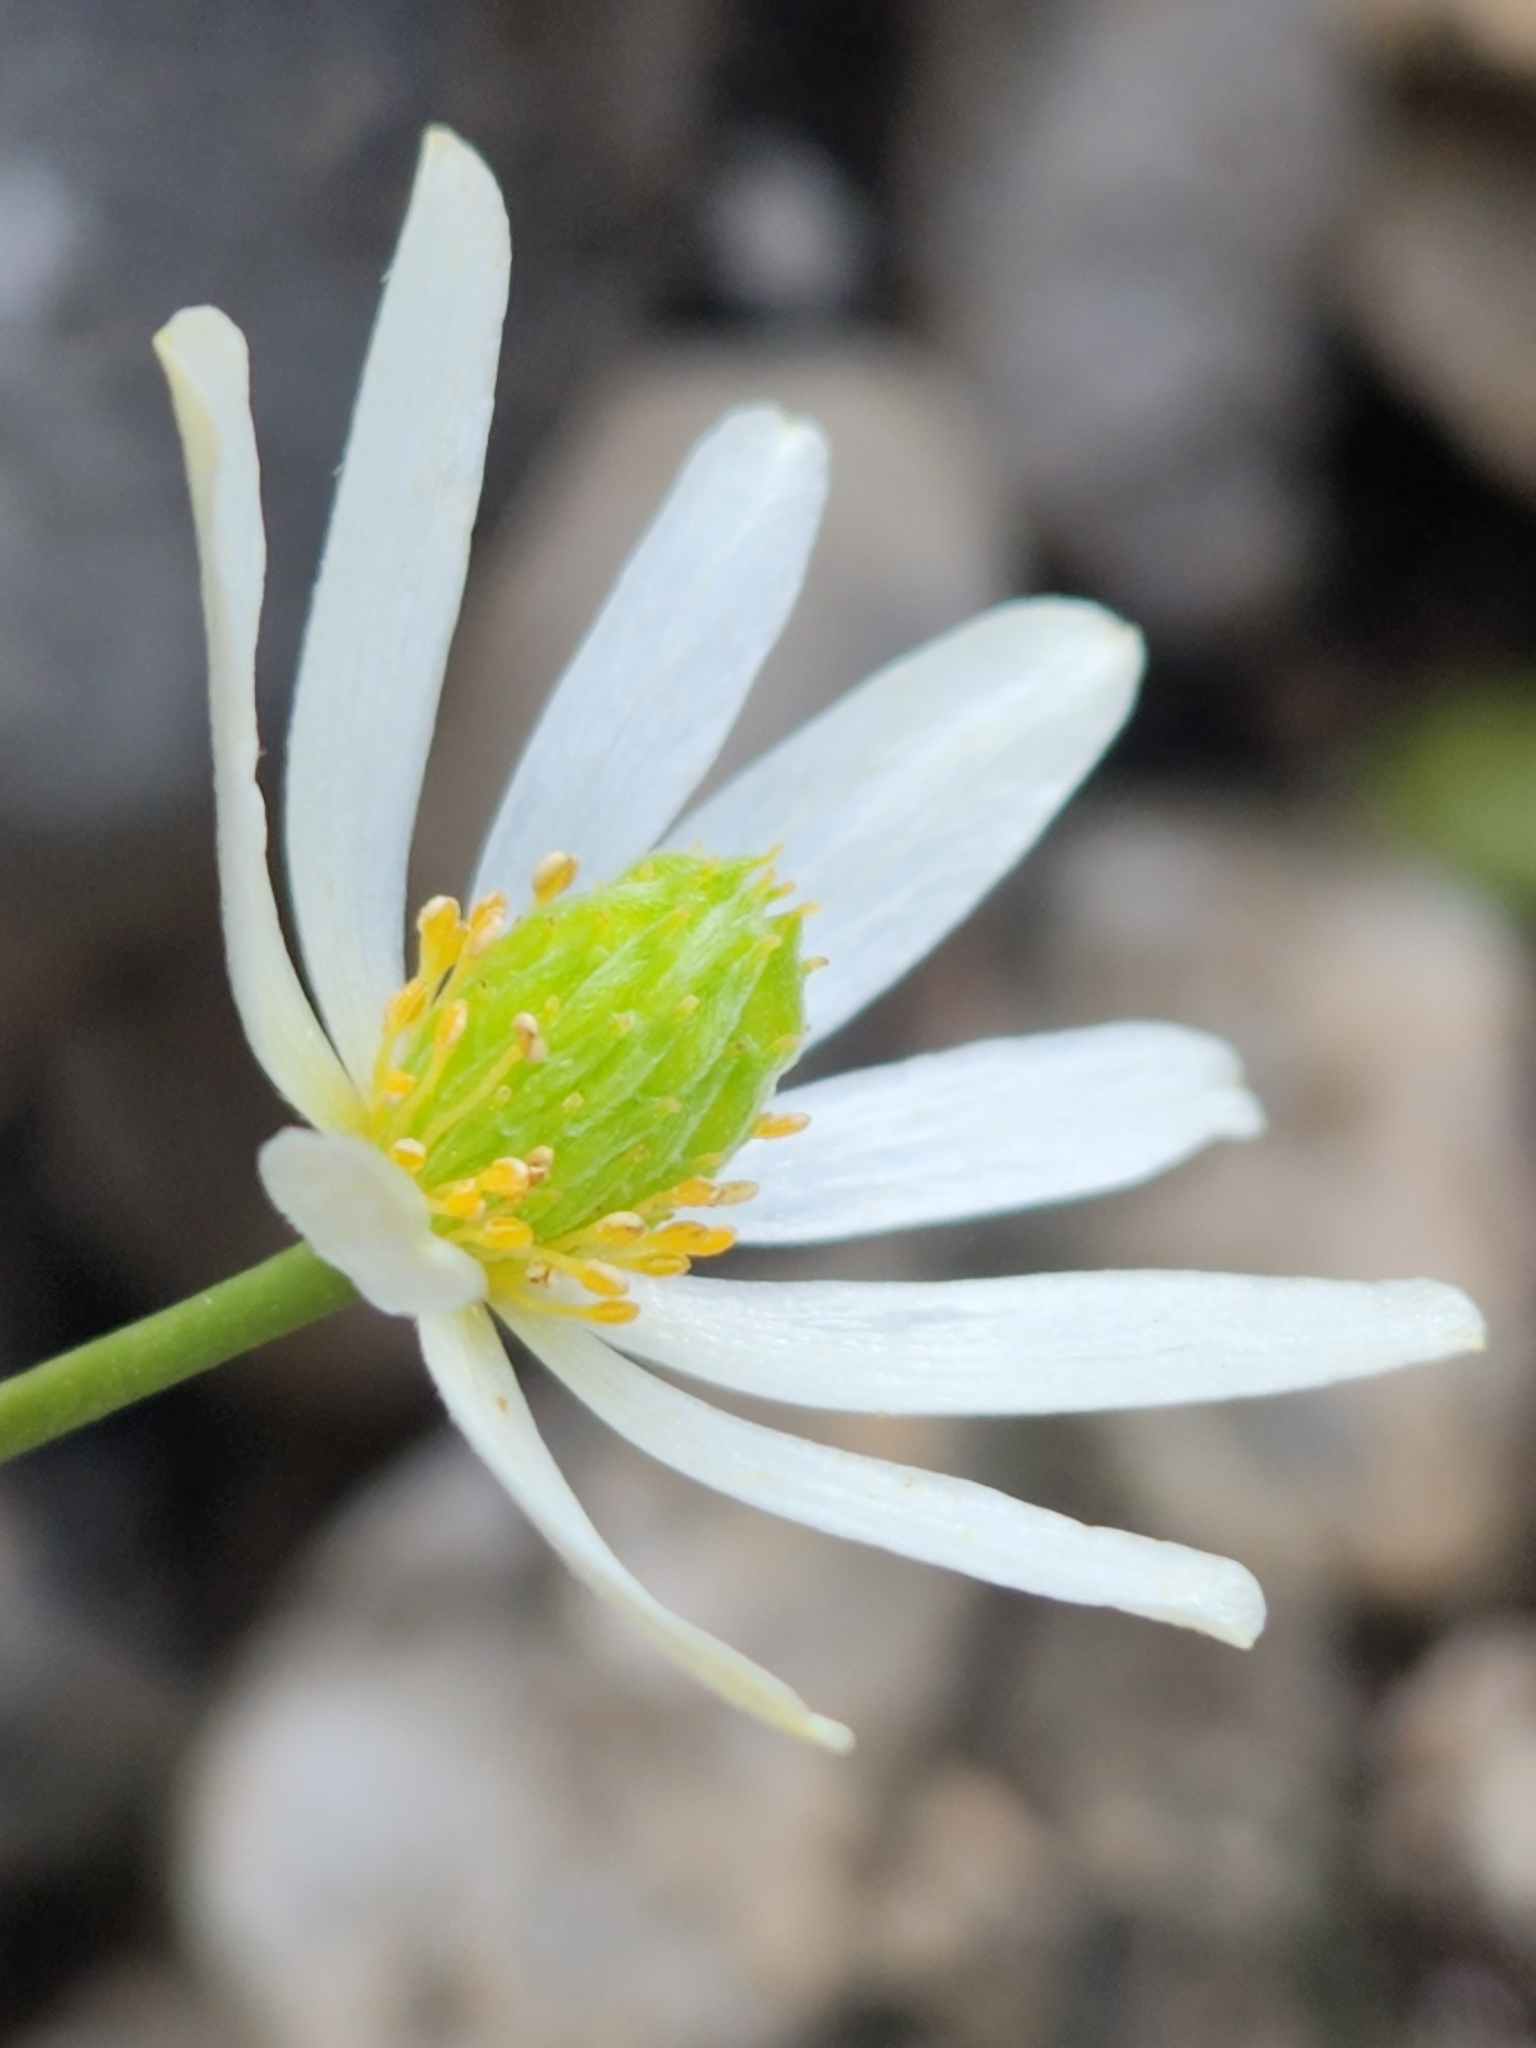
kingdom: Plantae
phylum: Tracheophyta
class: Magnoliopsida
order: Ranunculales
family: Ranunculaceae
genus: Anemone
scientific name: Anemone edwardsiana
